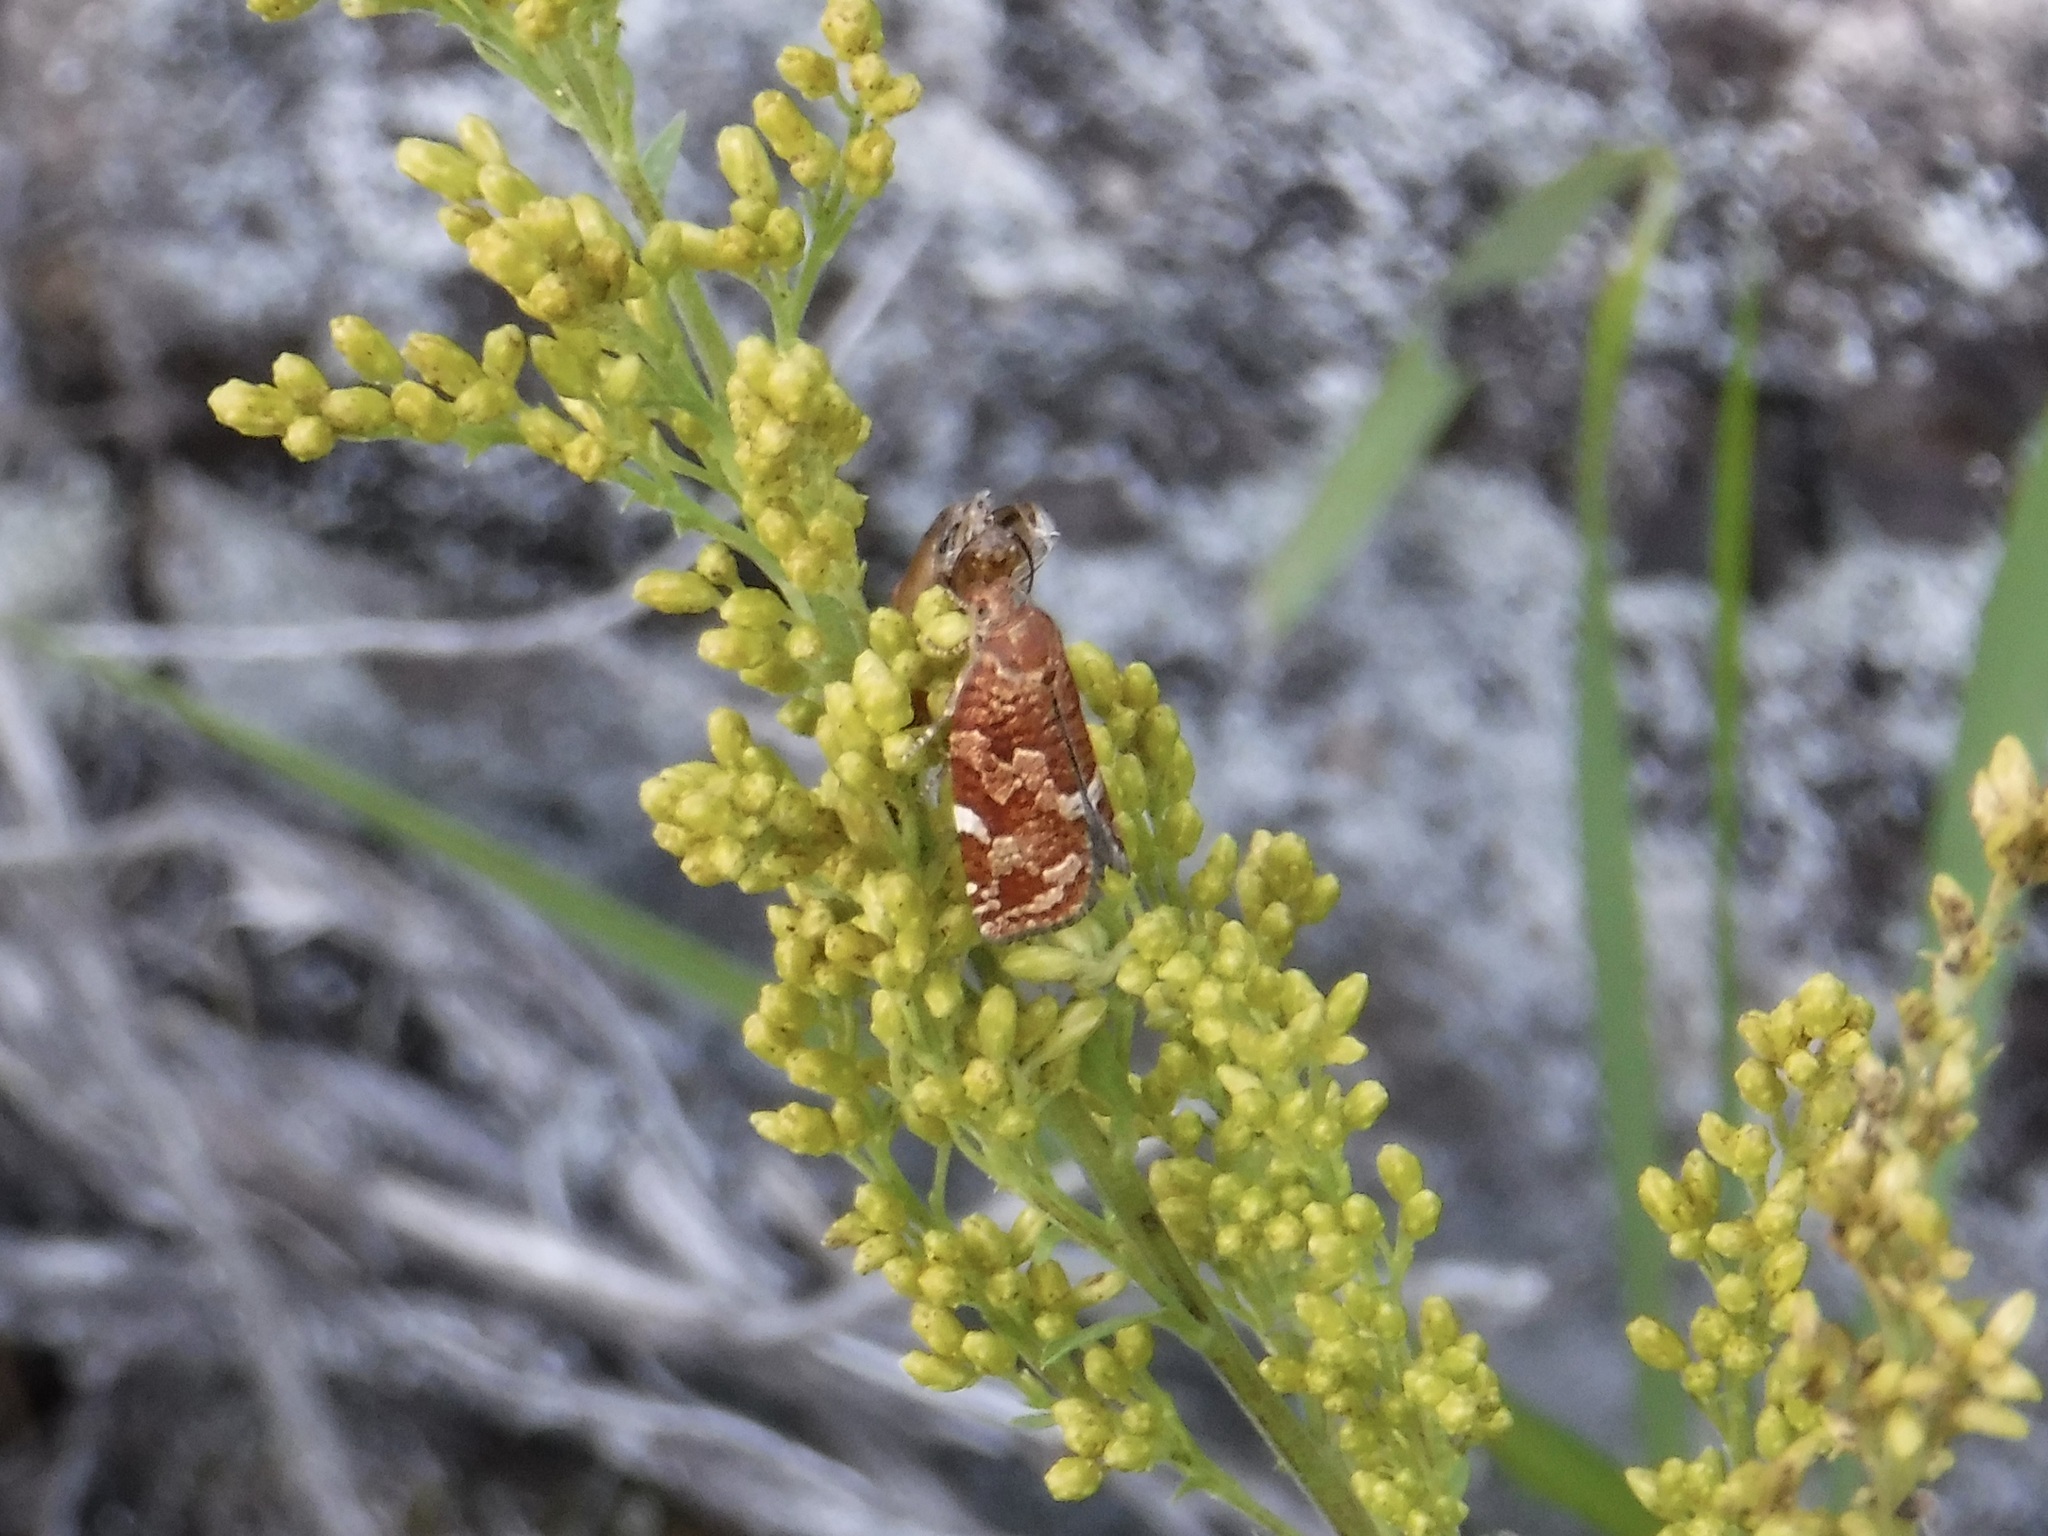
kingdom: Animalia
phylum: Arthropoda
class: Insecta
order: Lepidoptera
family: Tortricidae
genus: Choristoneura
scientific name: Choristoneura pinus
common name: Jack pine budworm
